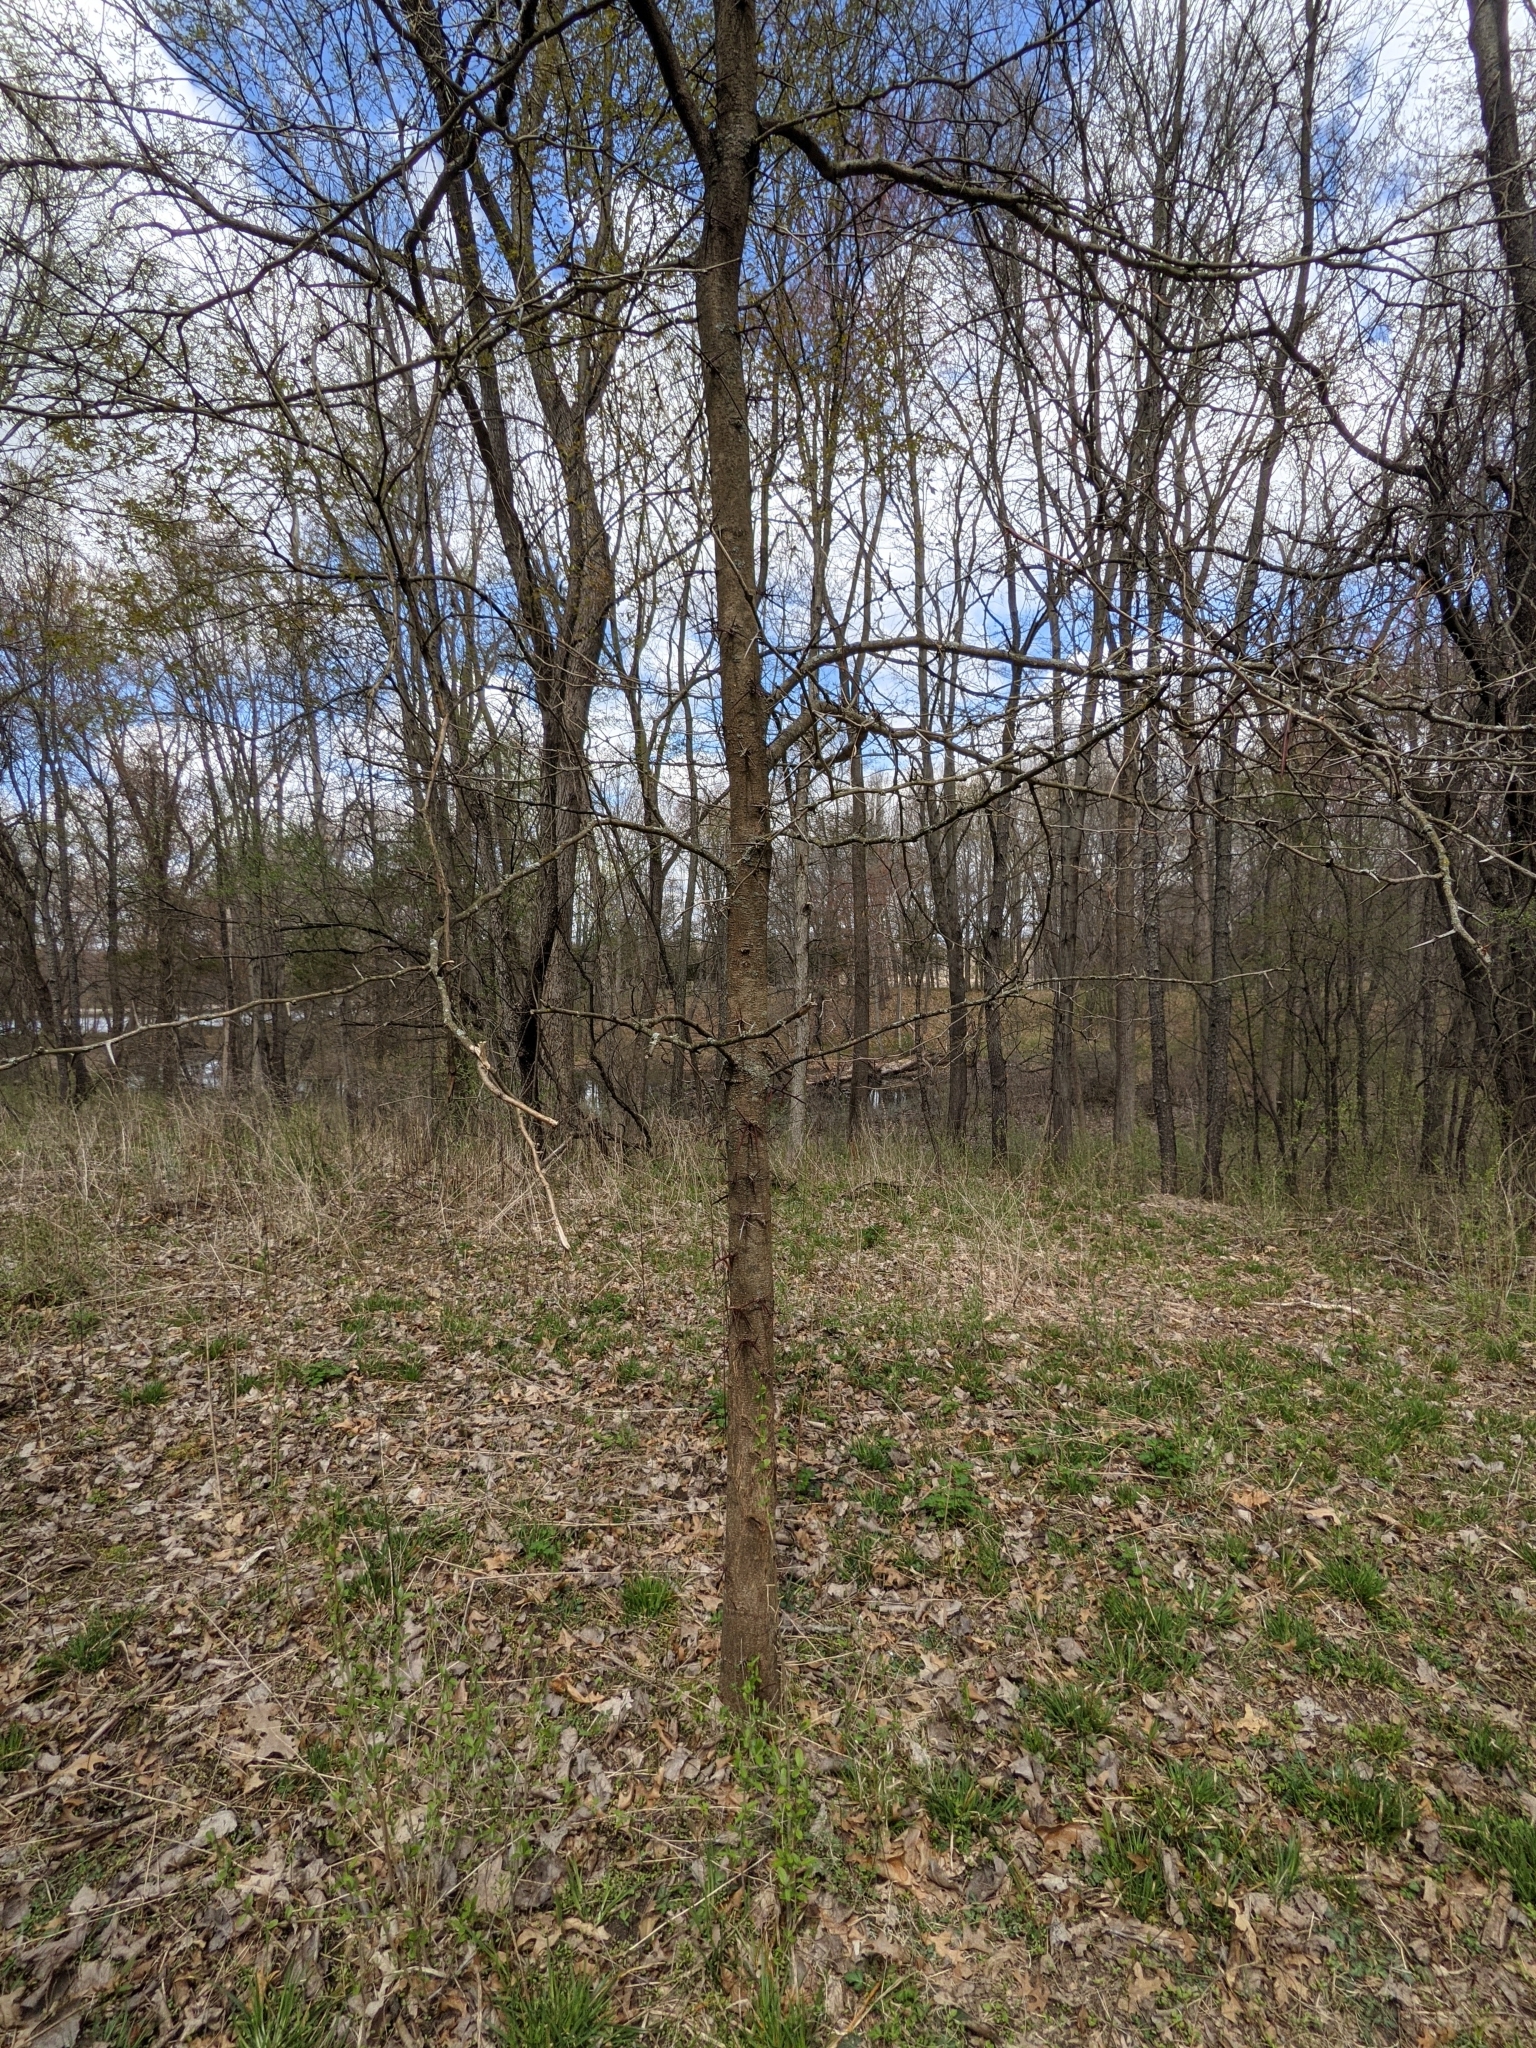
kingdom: Plantae
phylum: Tracheophyta
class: Magnoliopsida
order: Fabales
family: Fabaceae
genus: Gleditsia
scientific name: Gleditsia triacanthos
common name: Common honeylocust
